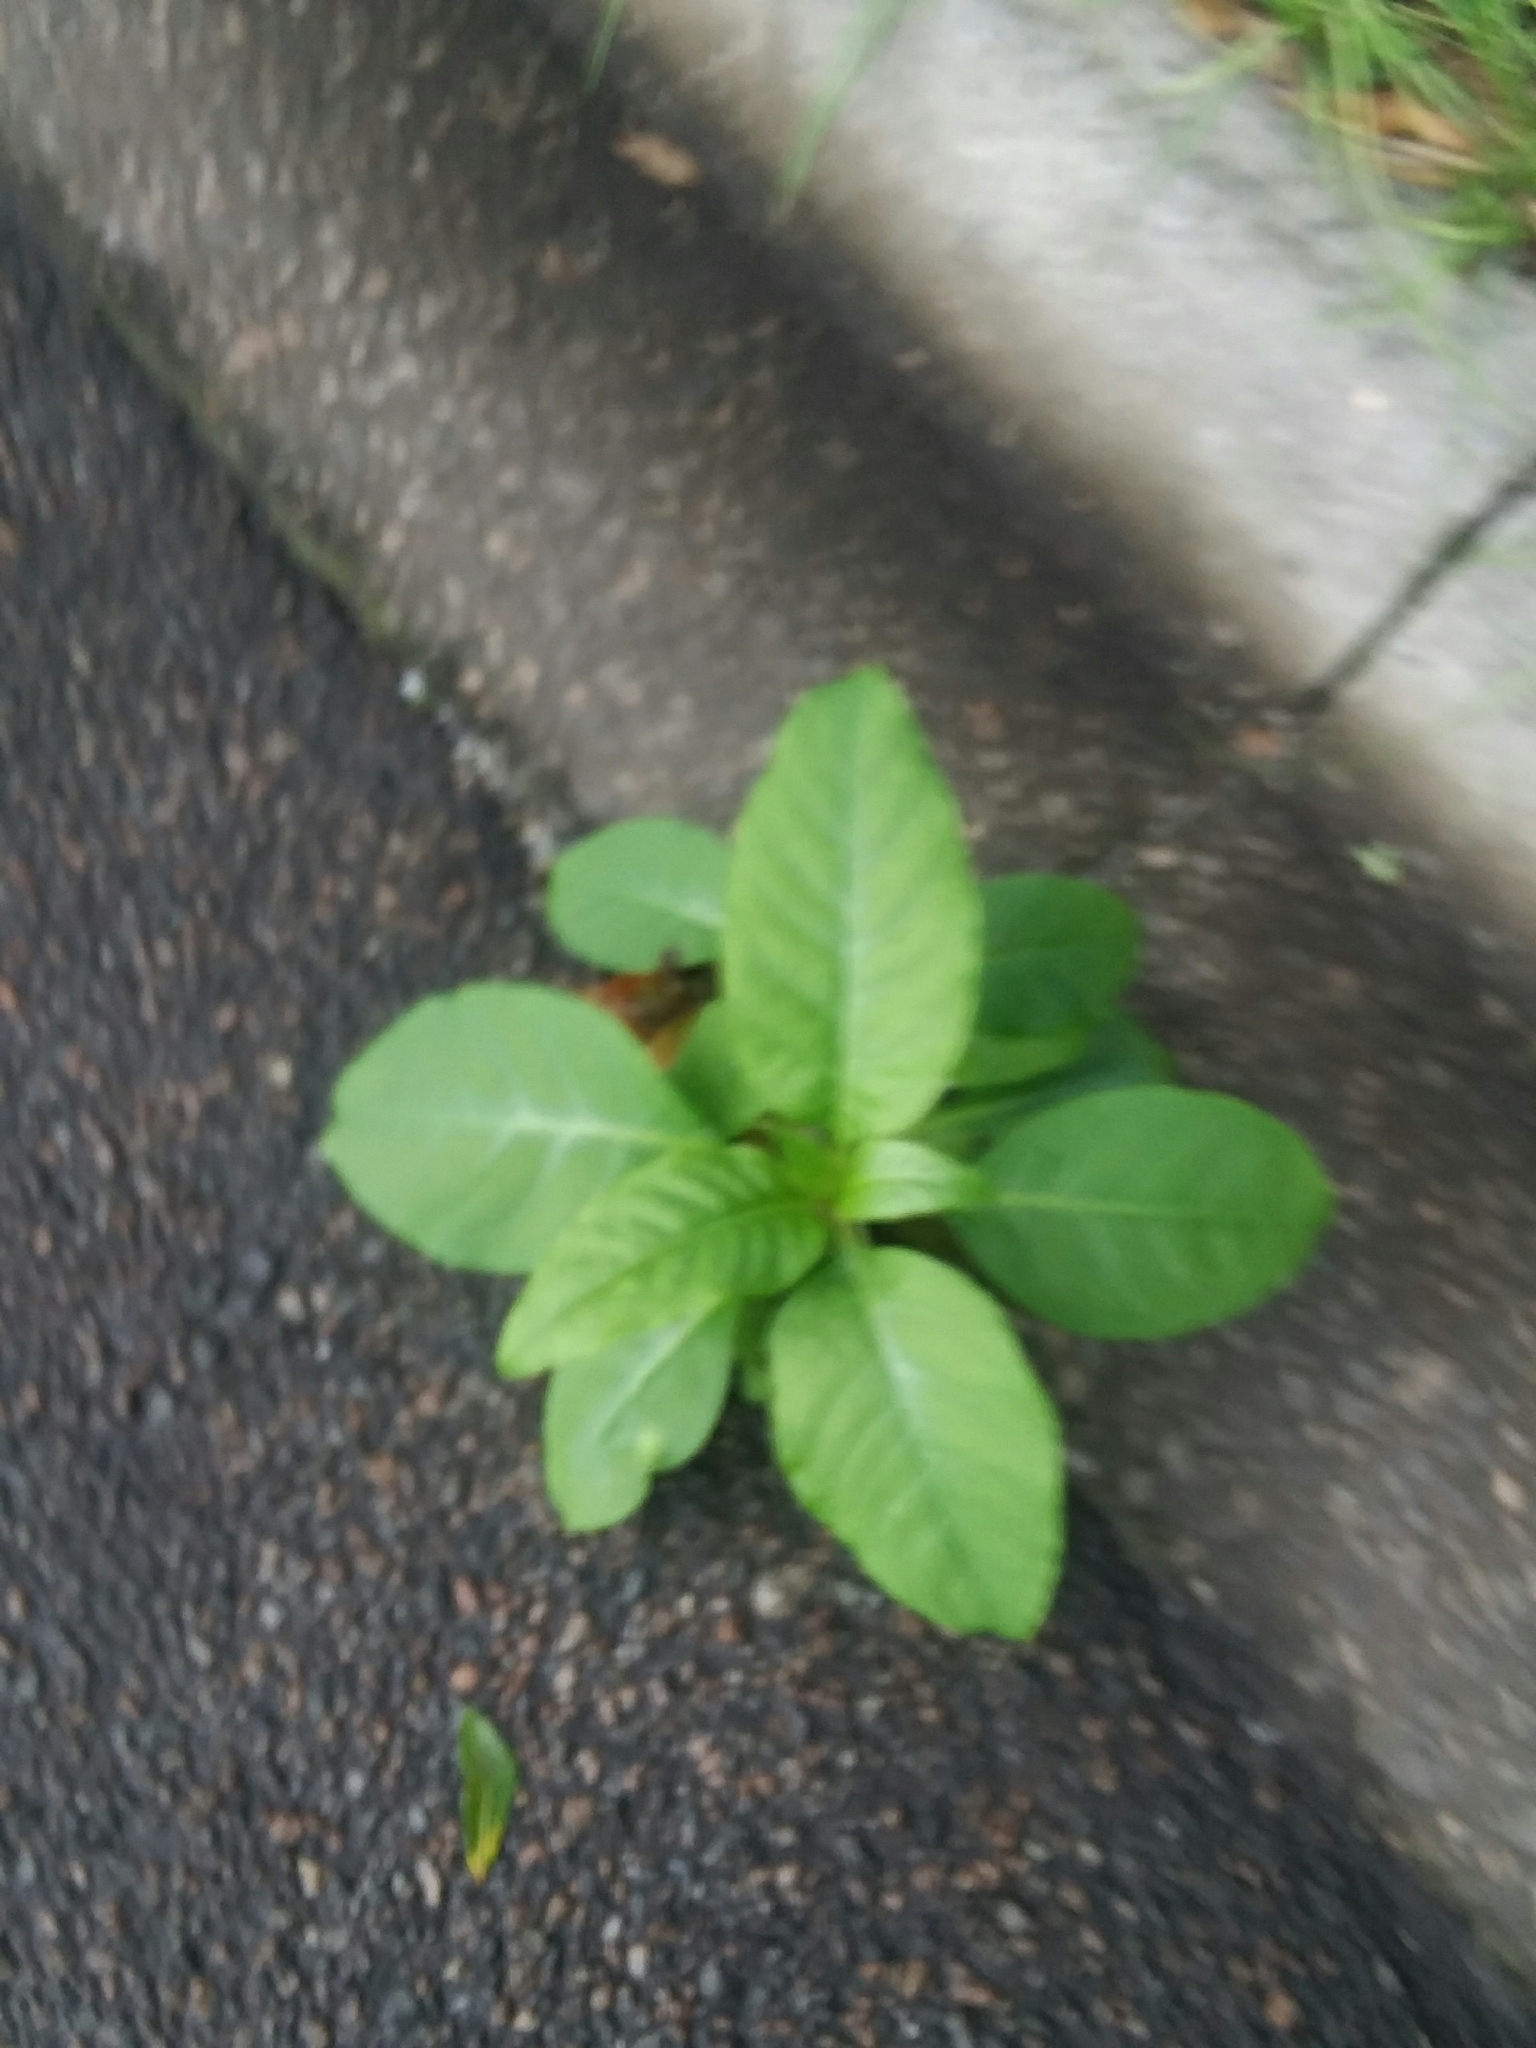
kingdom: Plantae
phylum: Tracheophyta
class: Magnoliopsida
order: Caryophyllales
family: Phytolaccaceae
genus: Phytolacca
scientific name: Phytolacca americana
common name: American pokeweed
